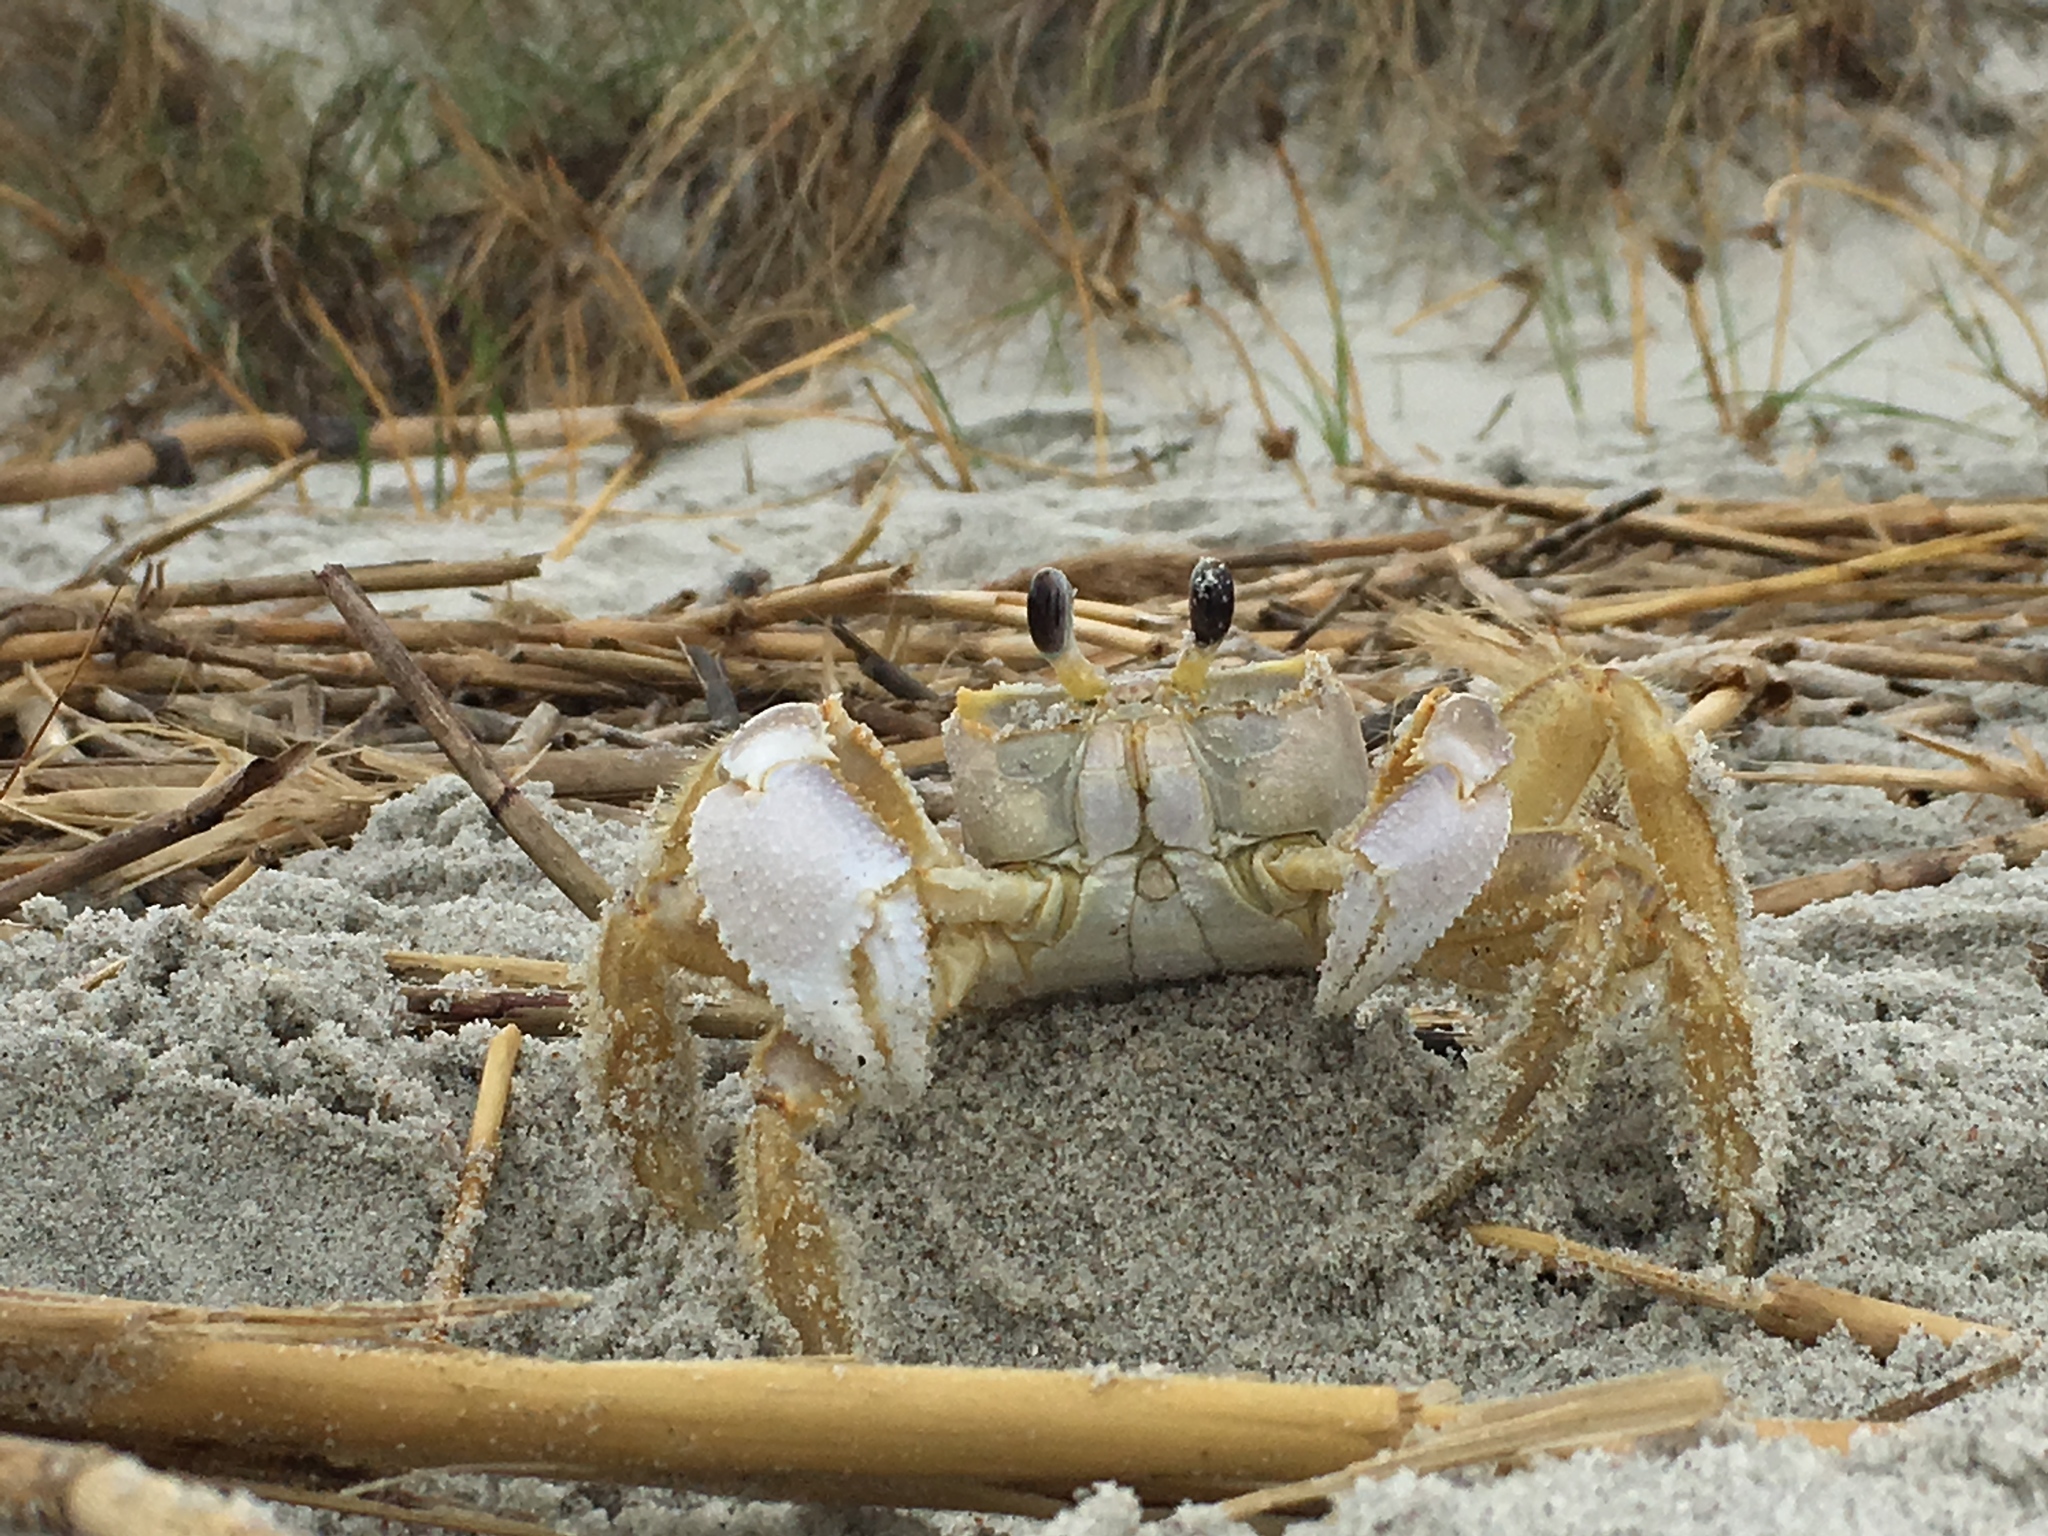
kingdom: Animalia
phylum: Arthropoda
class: Malacostraca
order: Decapoda
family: Ocypodidae
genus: Ocypode
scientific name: Ocypode quadrata
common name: Ghost crab
